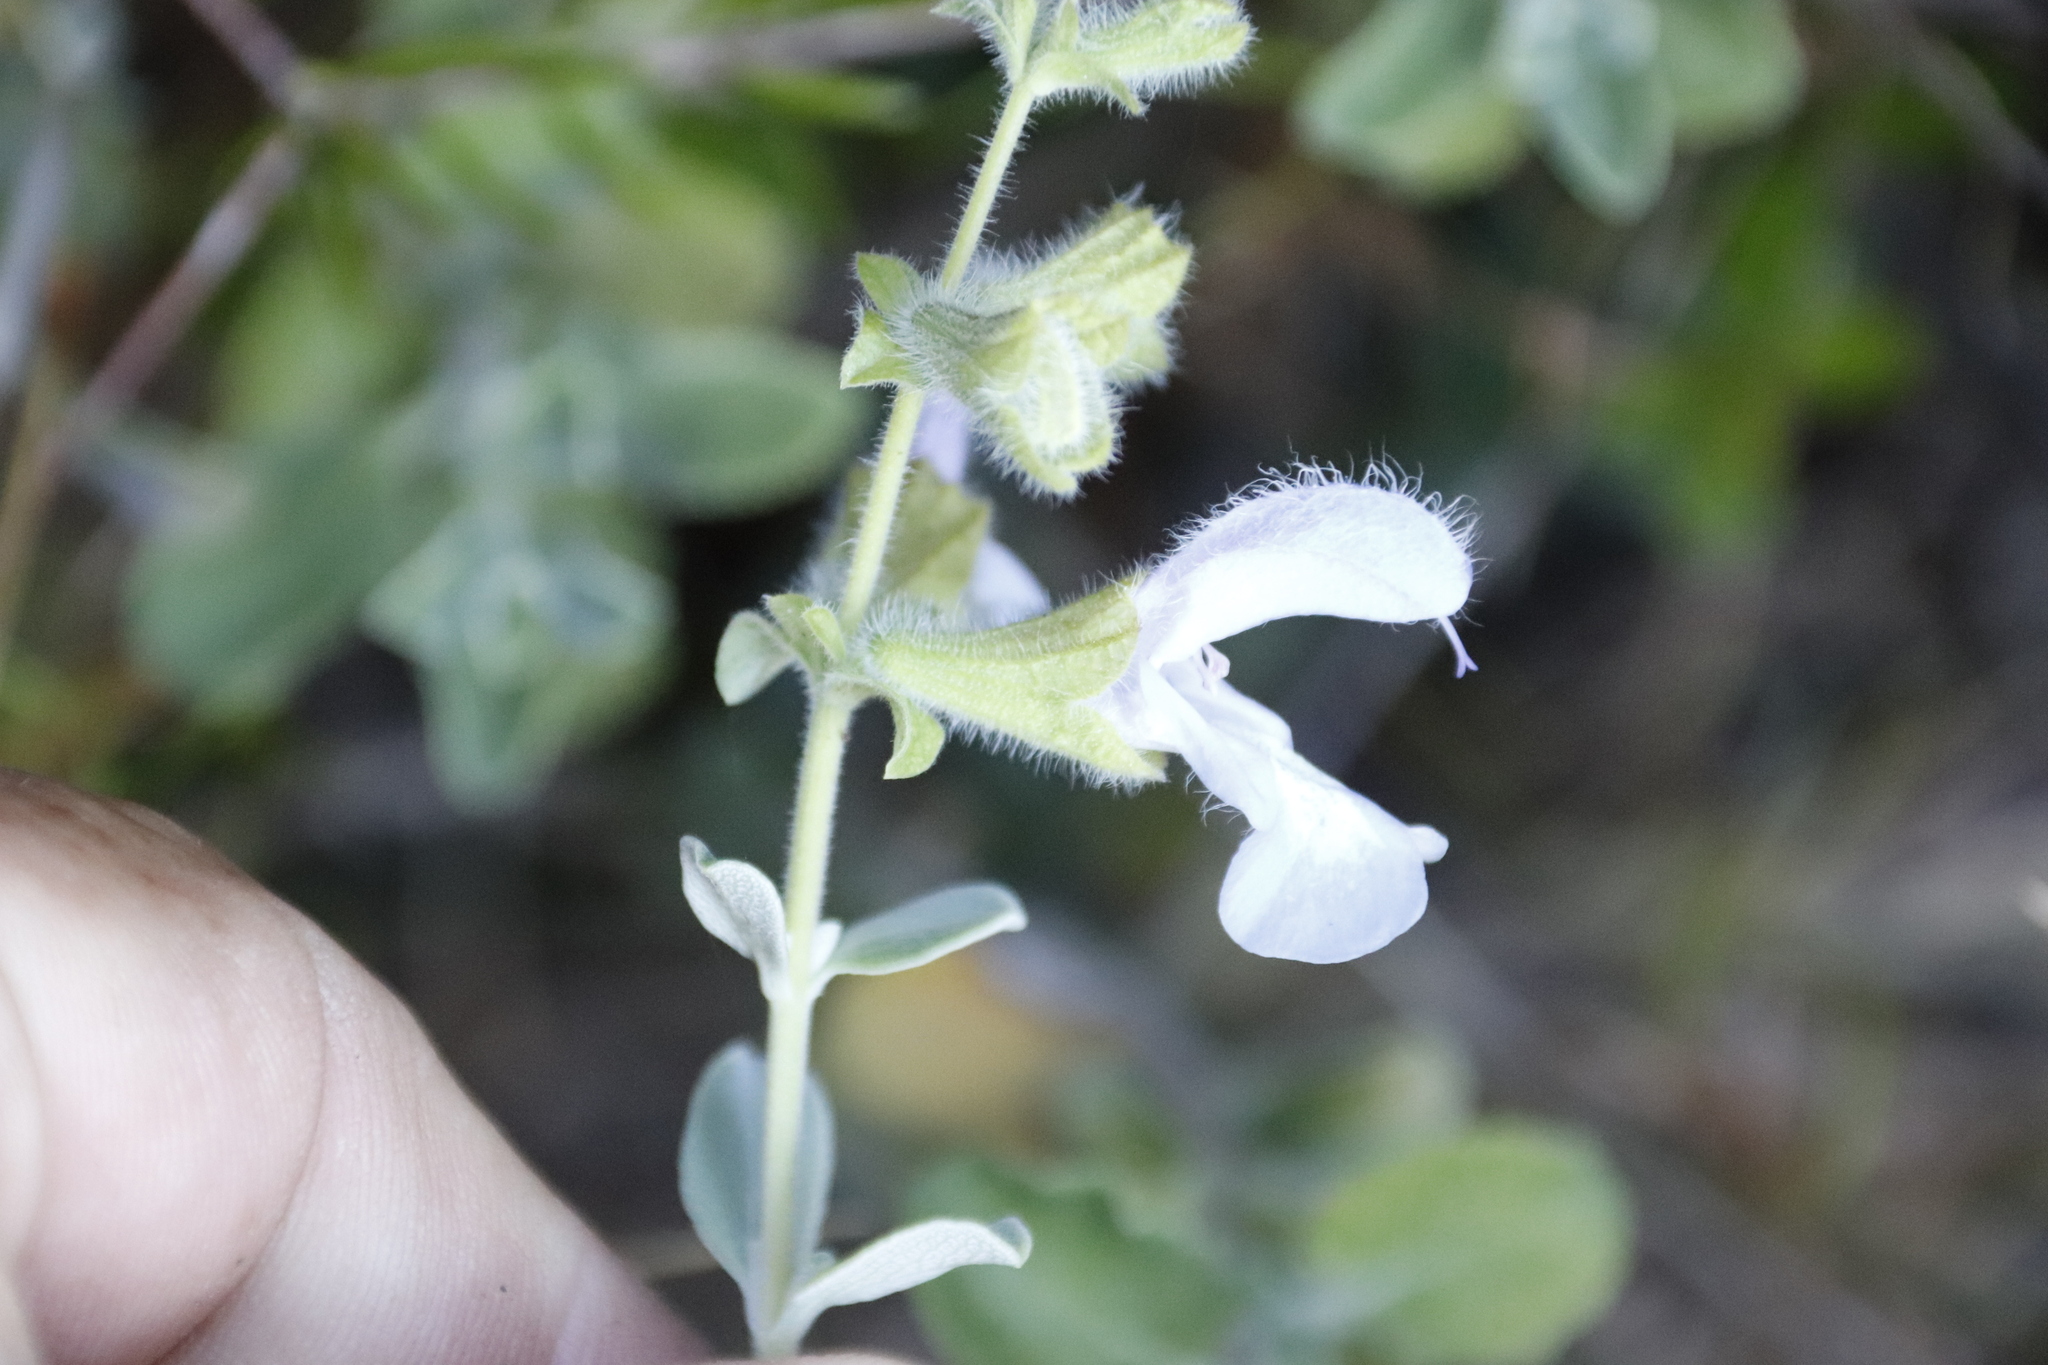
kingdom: Plantae
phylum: Tracheophyta
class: Magnoliopsida
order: Lamiales
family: Lamiaceae
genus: Salvia
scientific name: Salvia africana
